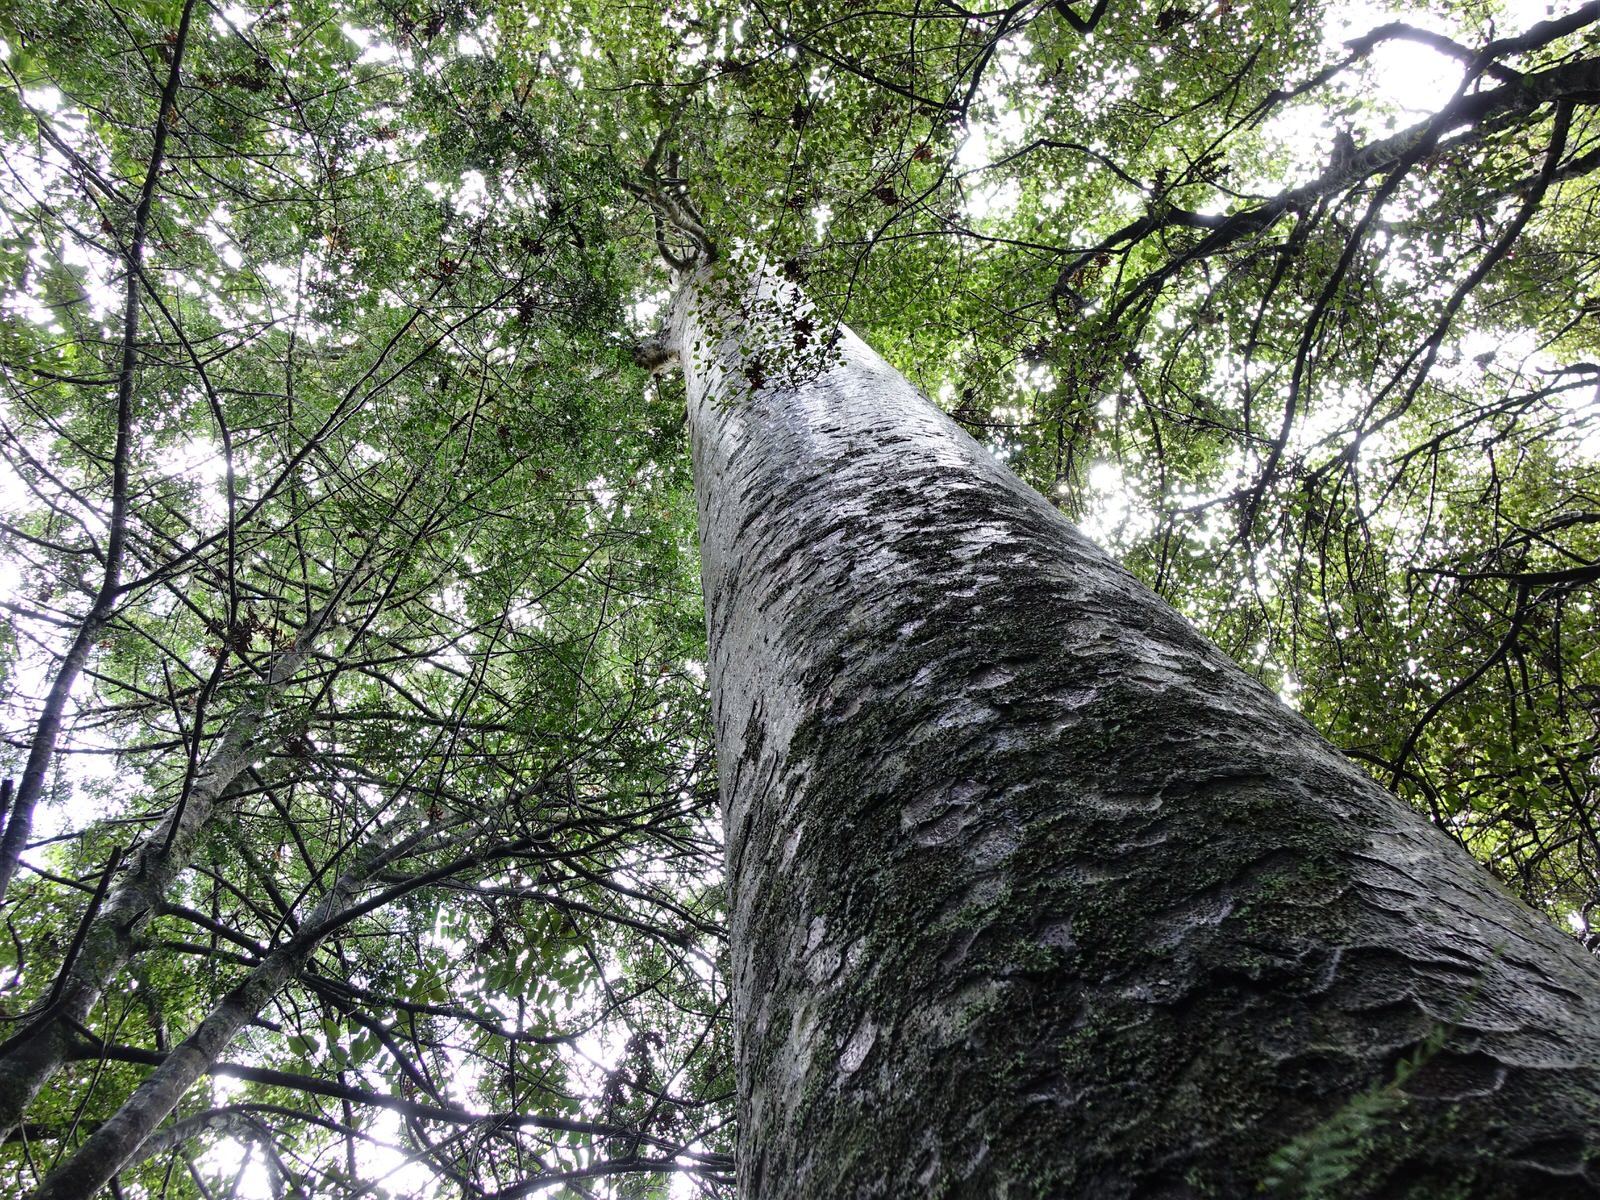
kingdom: Plantae
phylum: Tracheophyta
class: Pinopsida
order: Pinales
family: Araucariaceae
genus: Agathis
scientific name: Agathis australis
